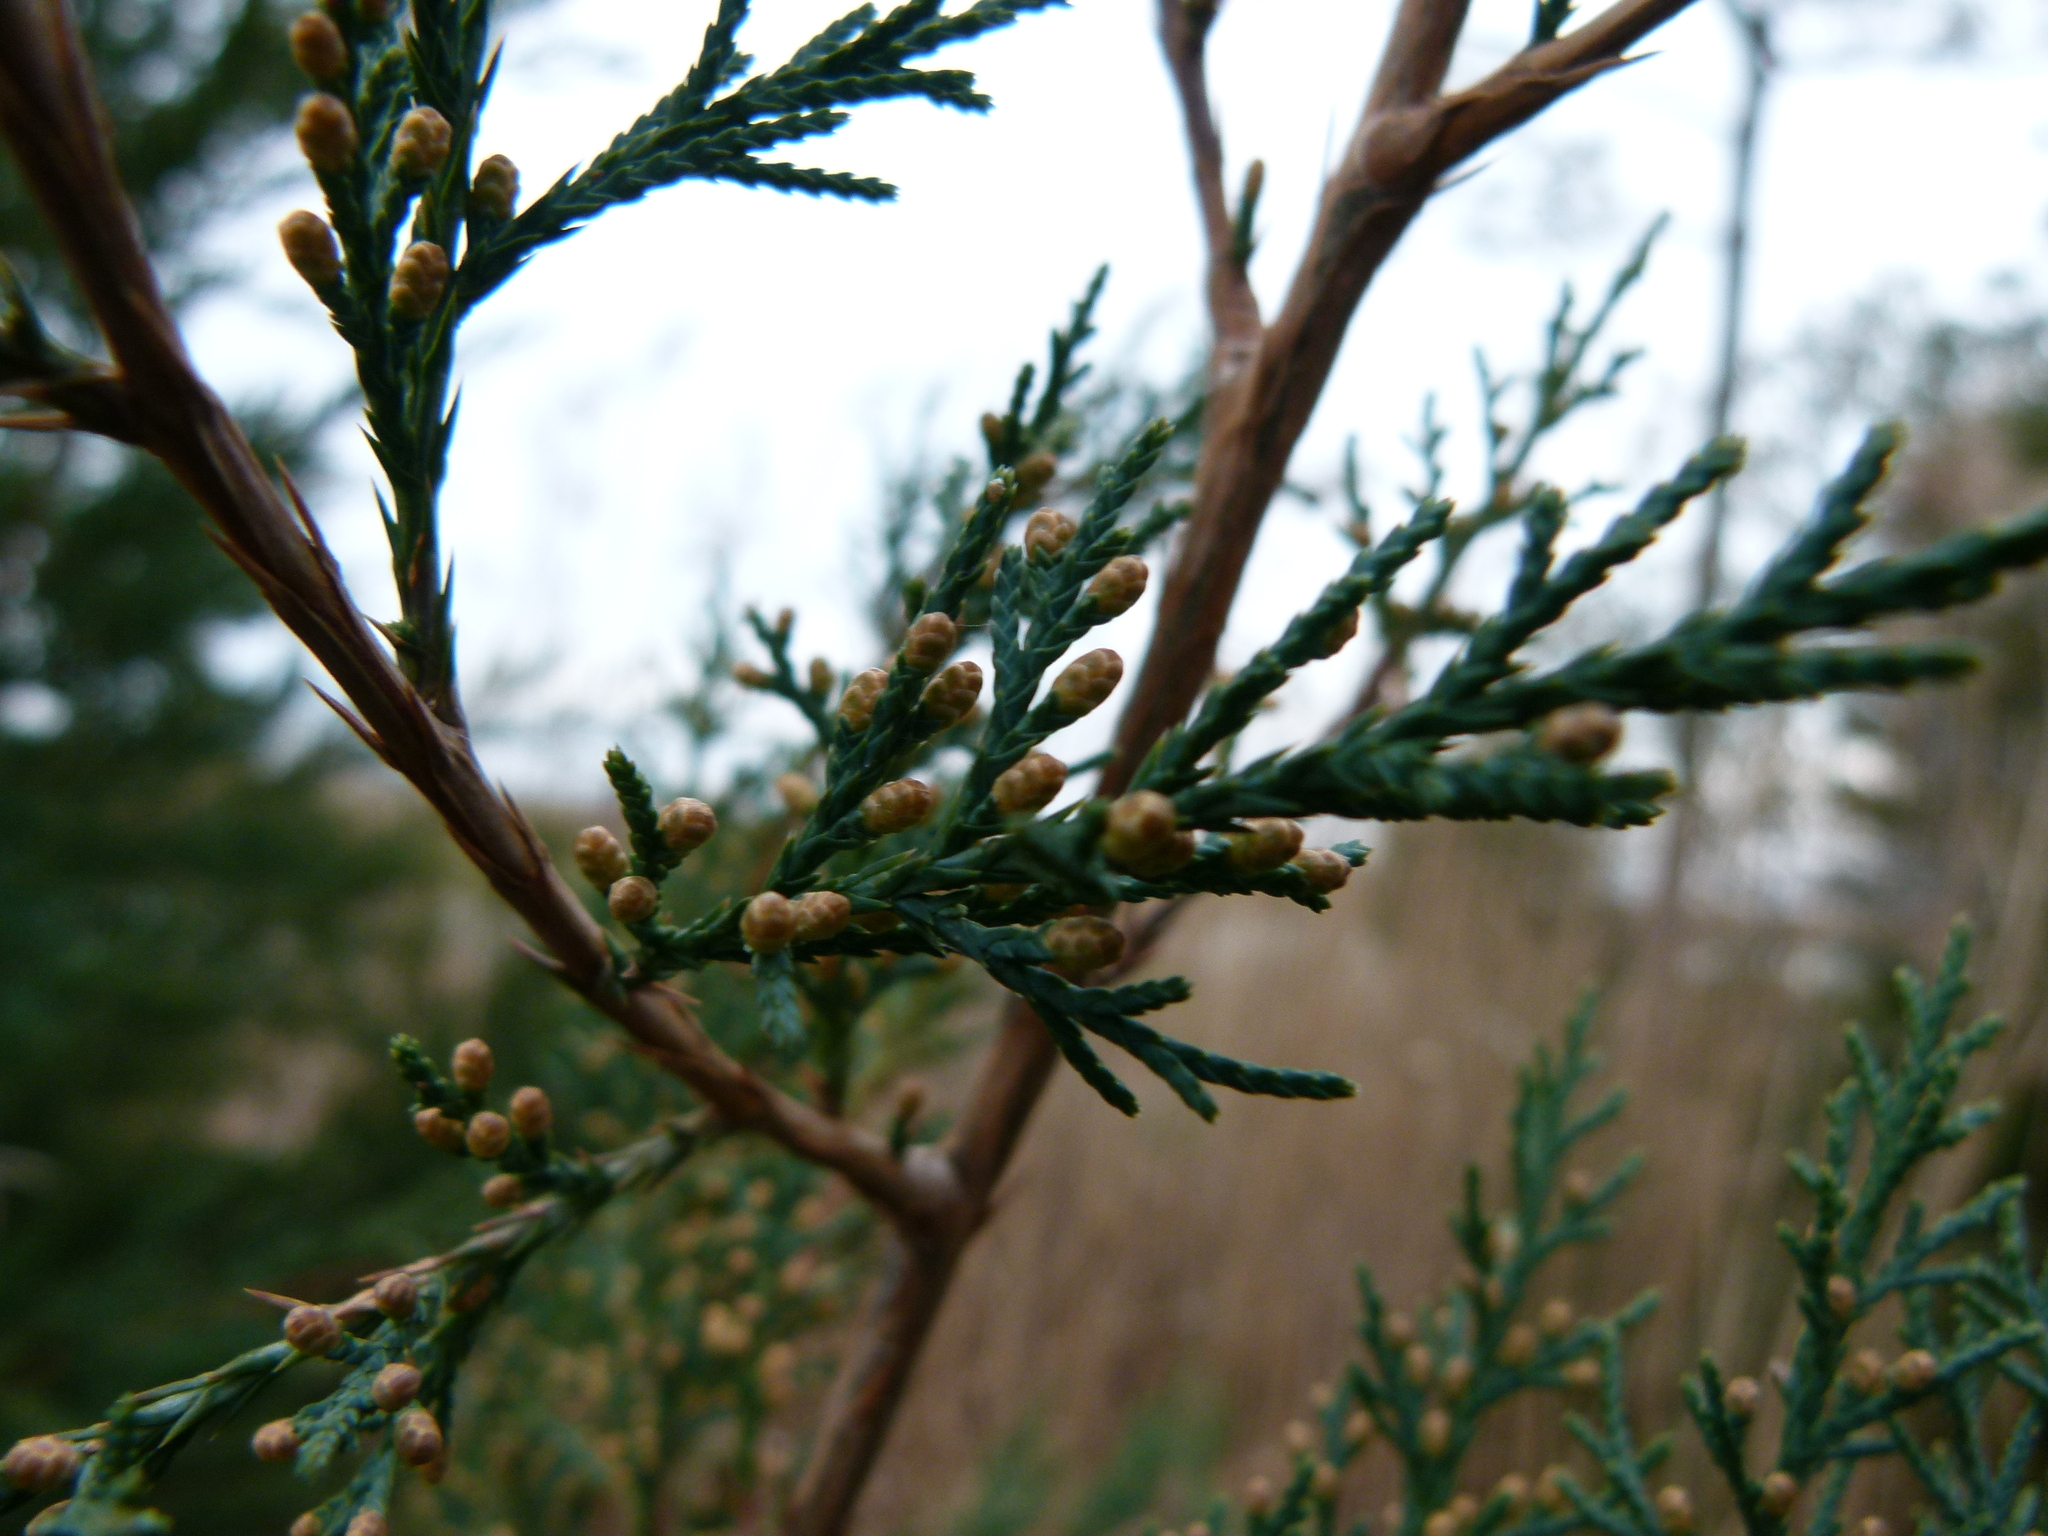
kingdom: Plantae
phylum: Tracheophyta
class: Pinopsida
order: Pinales
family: Cupressaceae
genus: Juniperus
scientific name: Juniperus virginiana
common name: Red juniper
